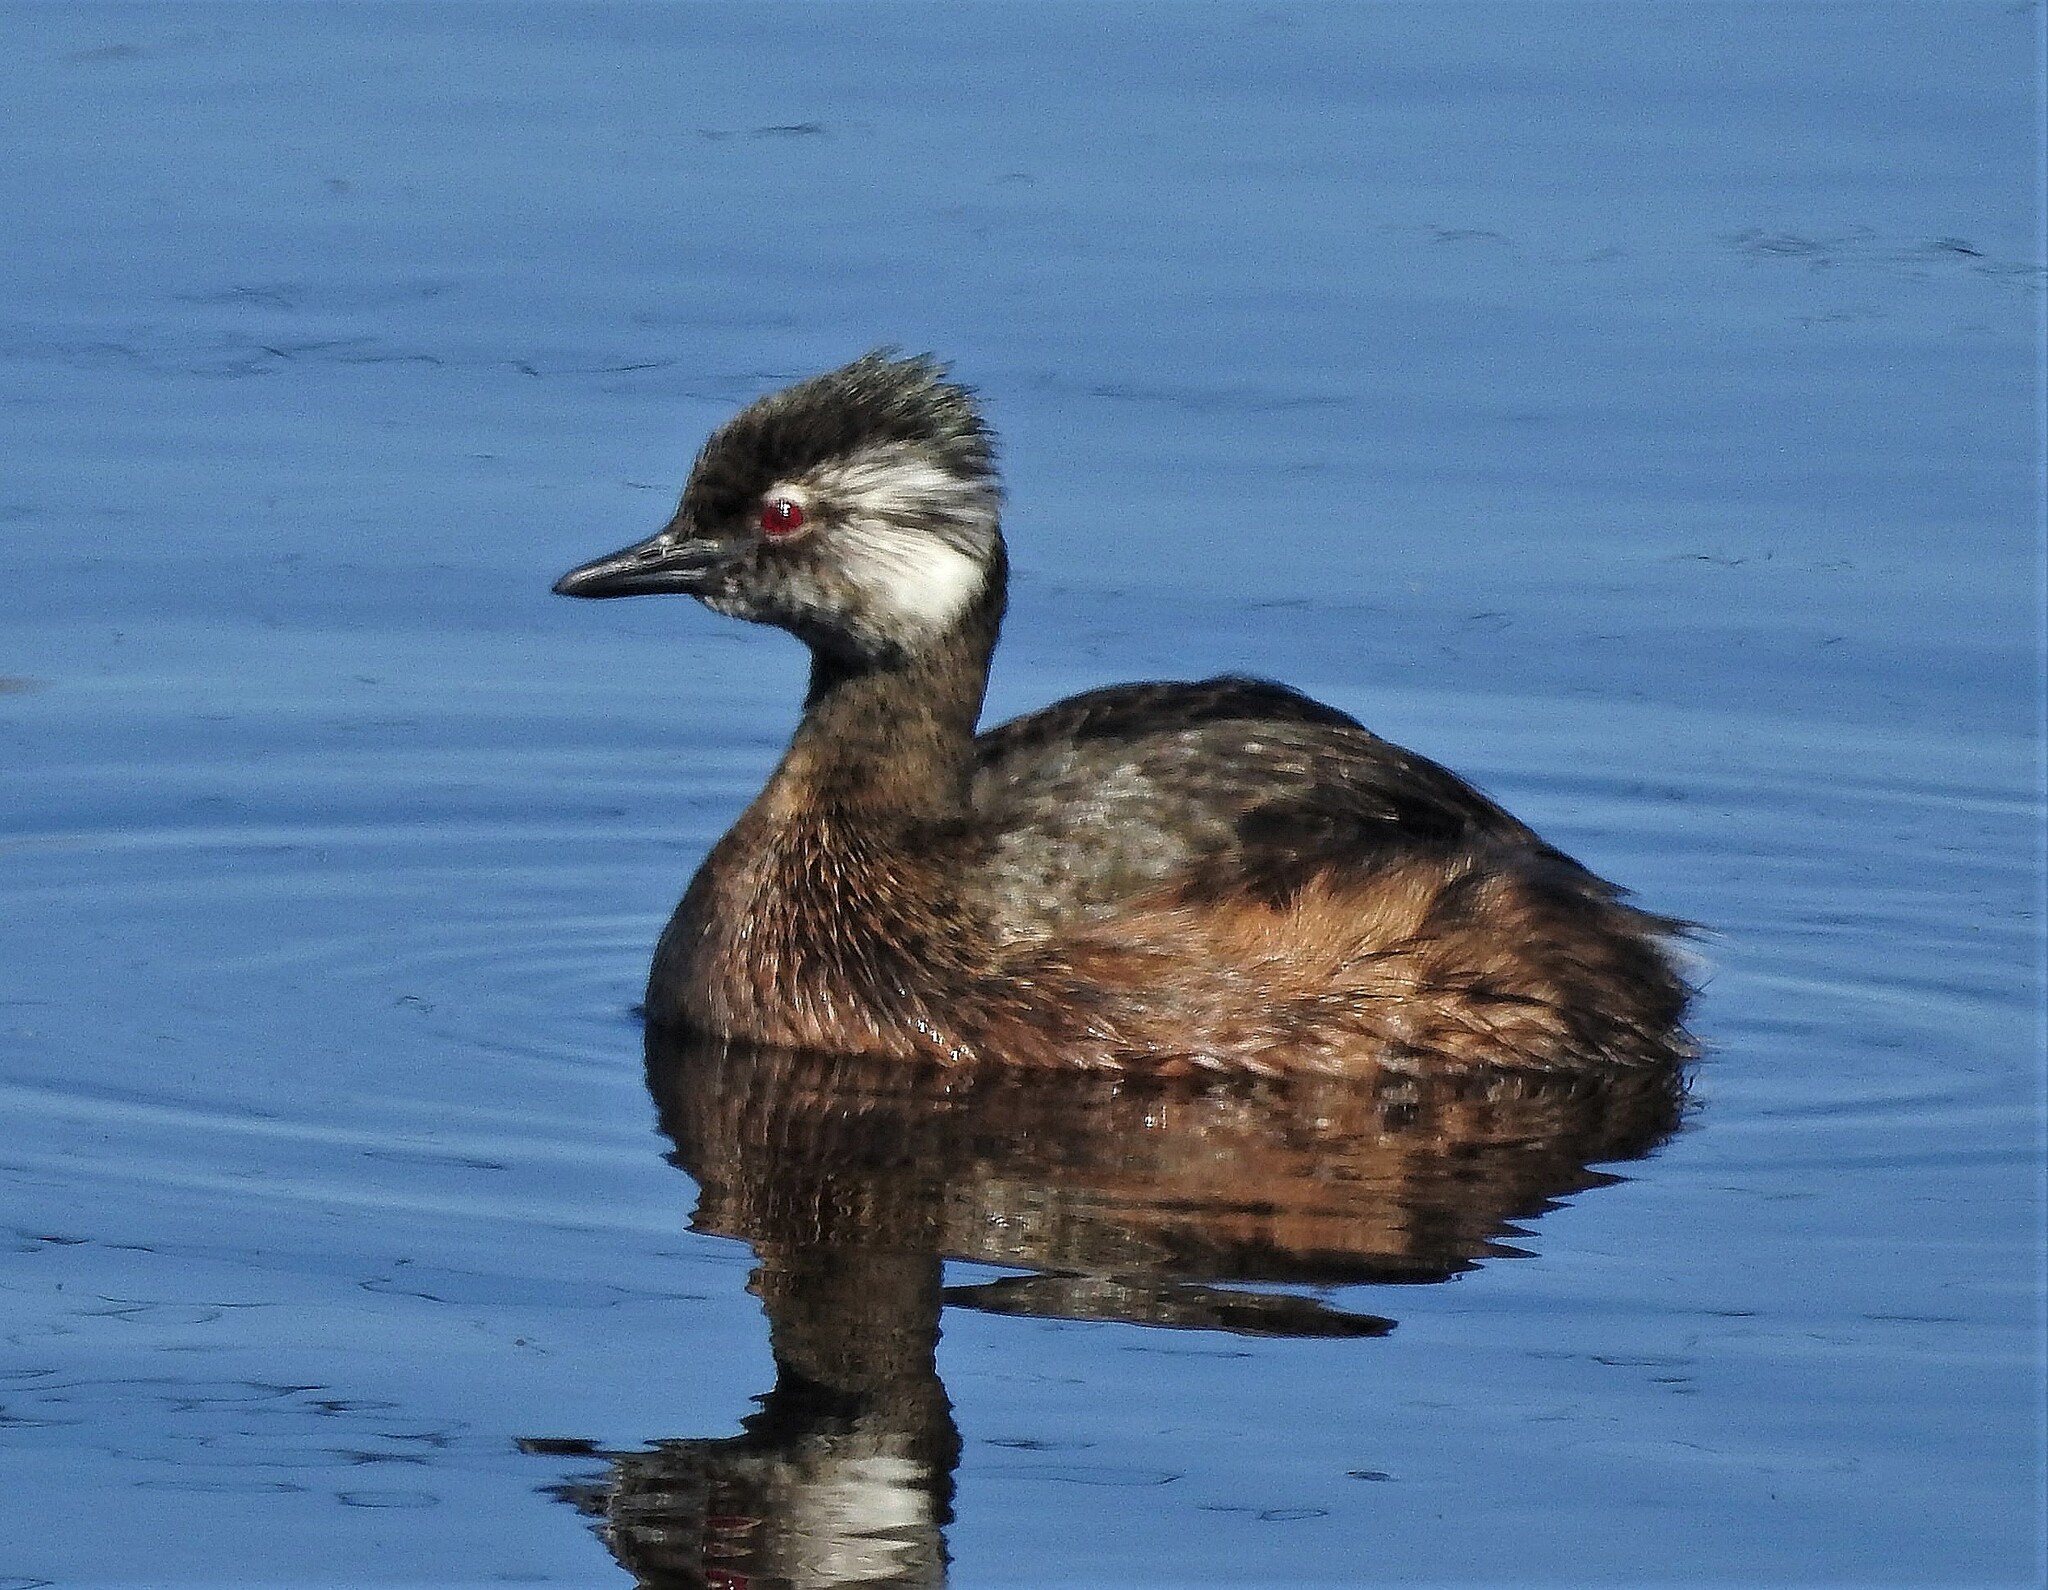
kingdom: Animalia
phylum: Chordata
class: Aves
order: Podicipediformes
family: Podicipedidae
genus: Rollandia
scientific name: Rollandia rolland
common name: White-tufted grebe
